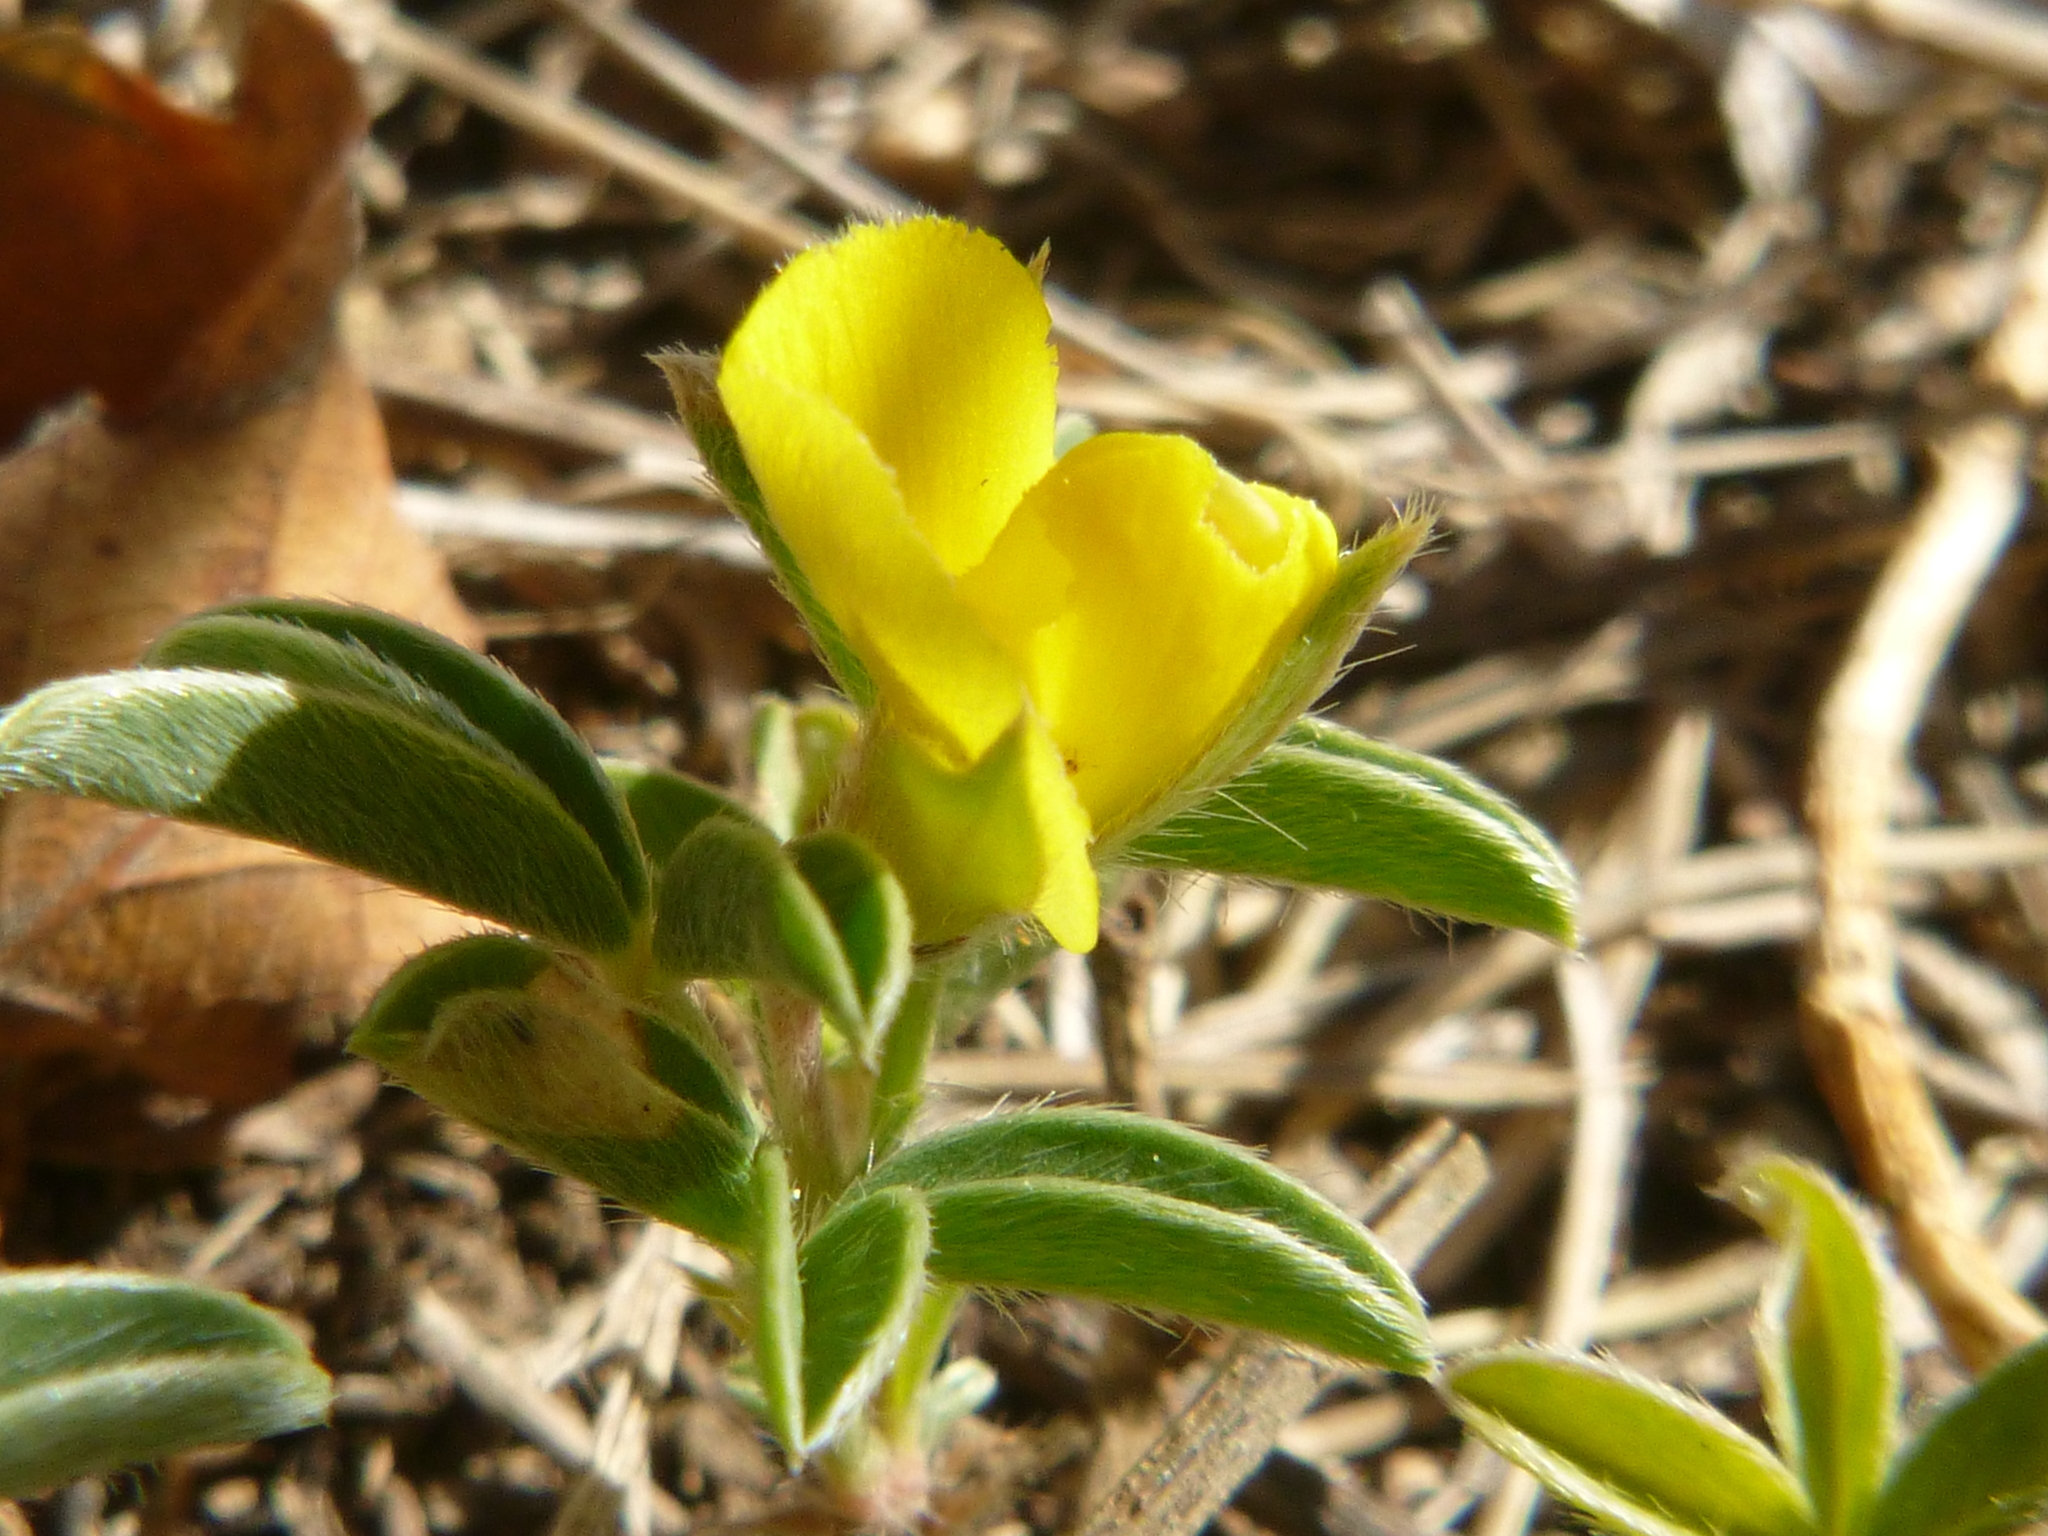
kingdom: Plantae
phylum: Tracheophyta
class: Magnoliopsida
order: Fabales
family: Fabaceae
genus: Argyrolobium
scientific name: Argyrolobium zanonii
